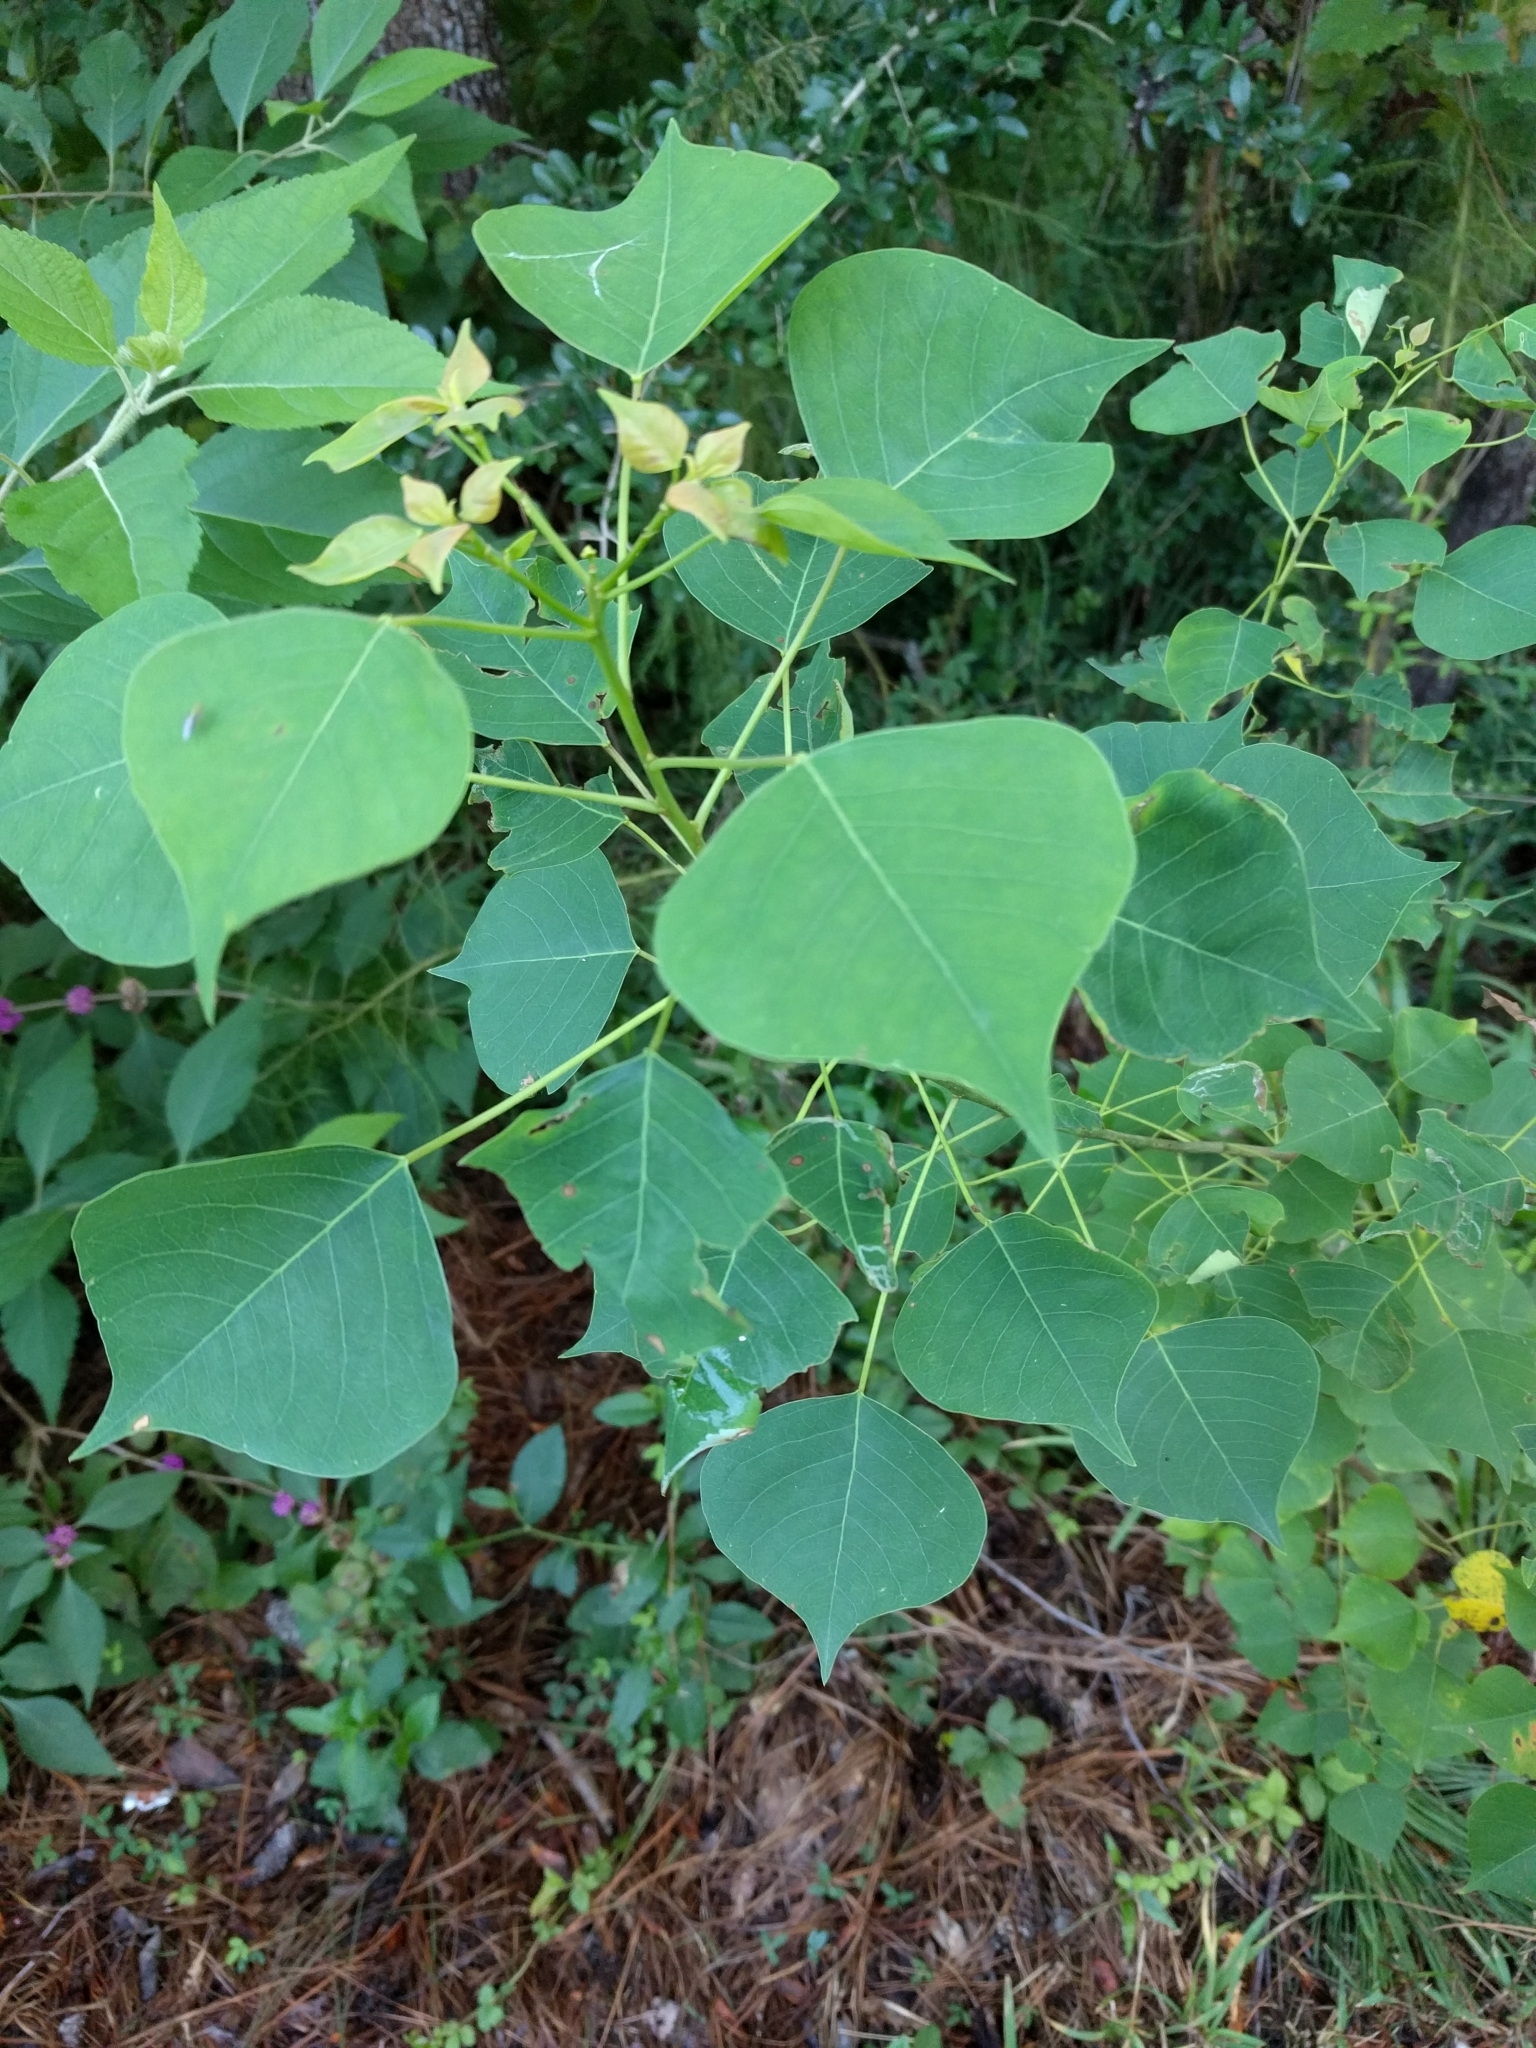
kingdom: Plantae
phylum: Tracheophyta
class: Magnoliopsida
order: Malpighiales
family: Euphorbiaceae
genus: Triadica
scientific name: Triadica sebifera
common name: Chinese tallow
